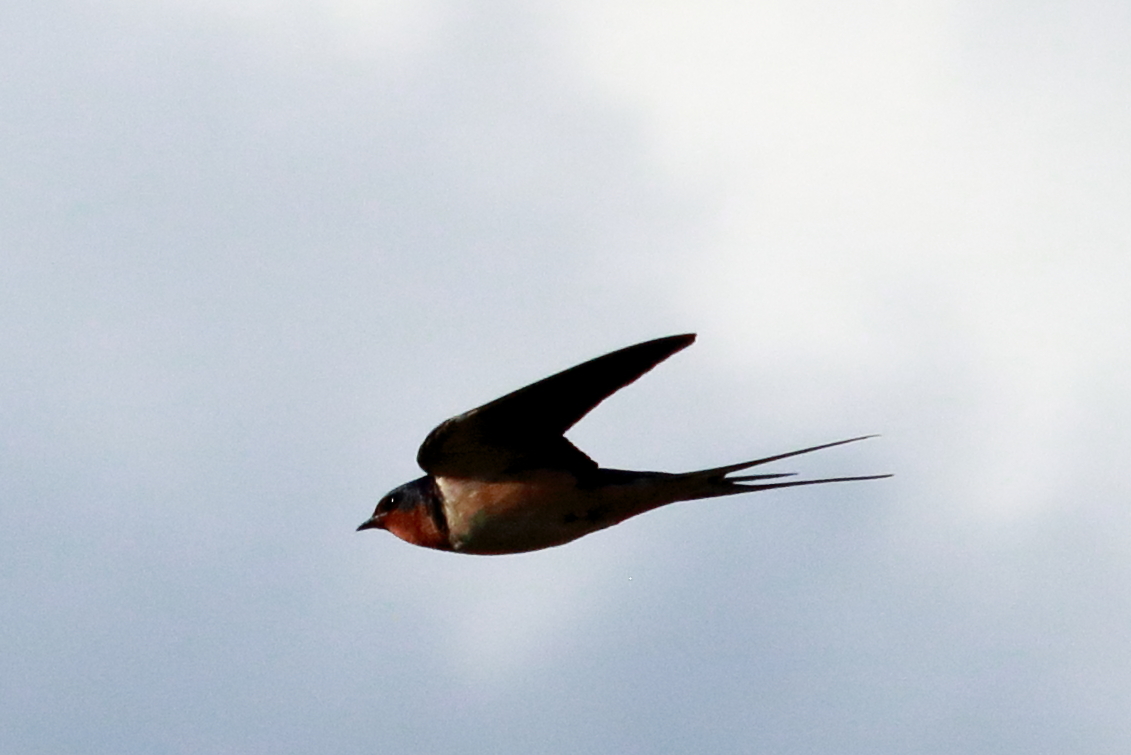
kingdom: Animalia
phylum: Chordata
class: Aves
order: Passeriformes
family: Hirundinidae
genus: Hirundo
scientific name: Hirundo rustica
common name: Barn swallow
